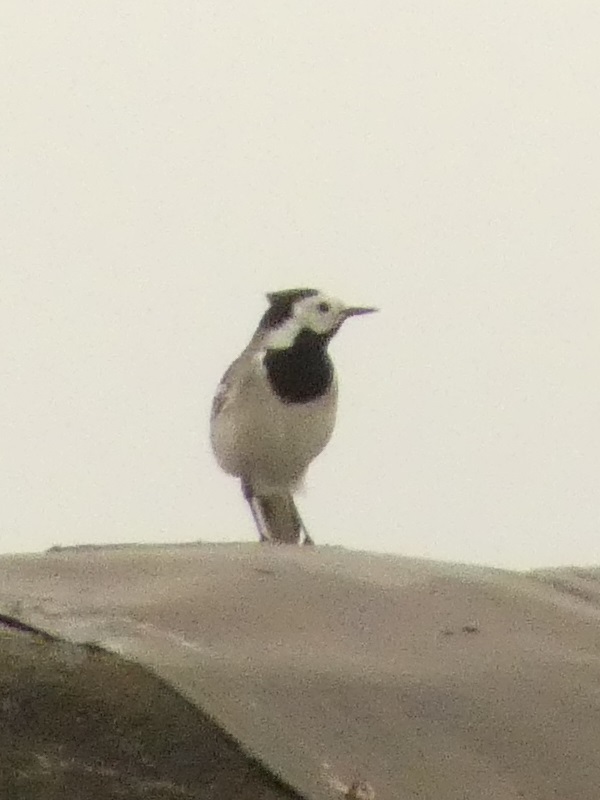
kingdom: Animalia
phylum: Chordata
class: Aves
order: Passeriformes
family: Motacillidae
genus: Motacilla
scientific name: Motacilla alba
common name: White wagtail
